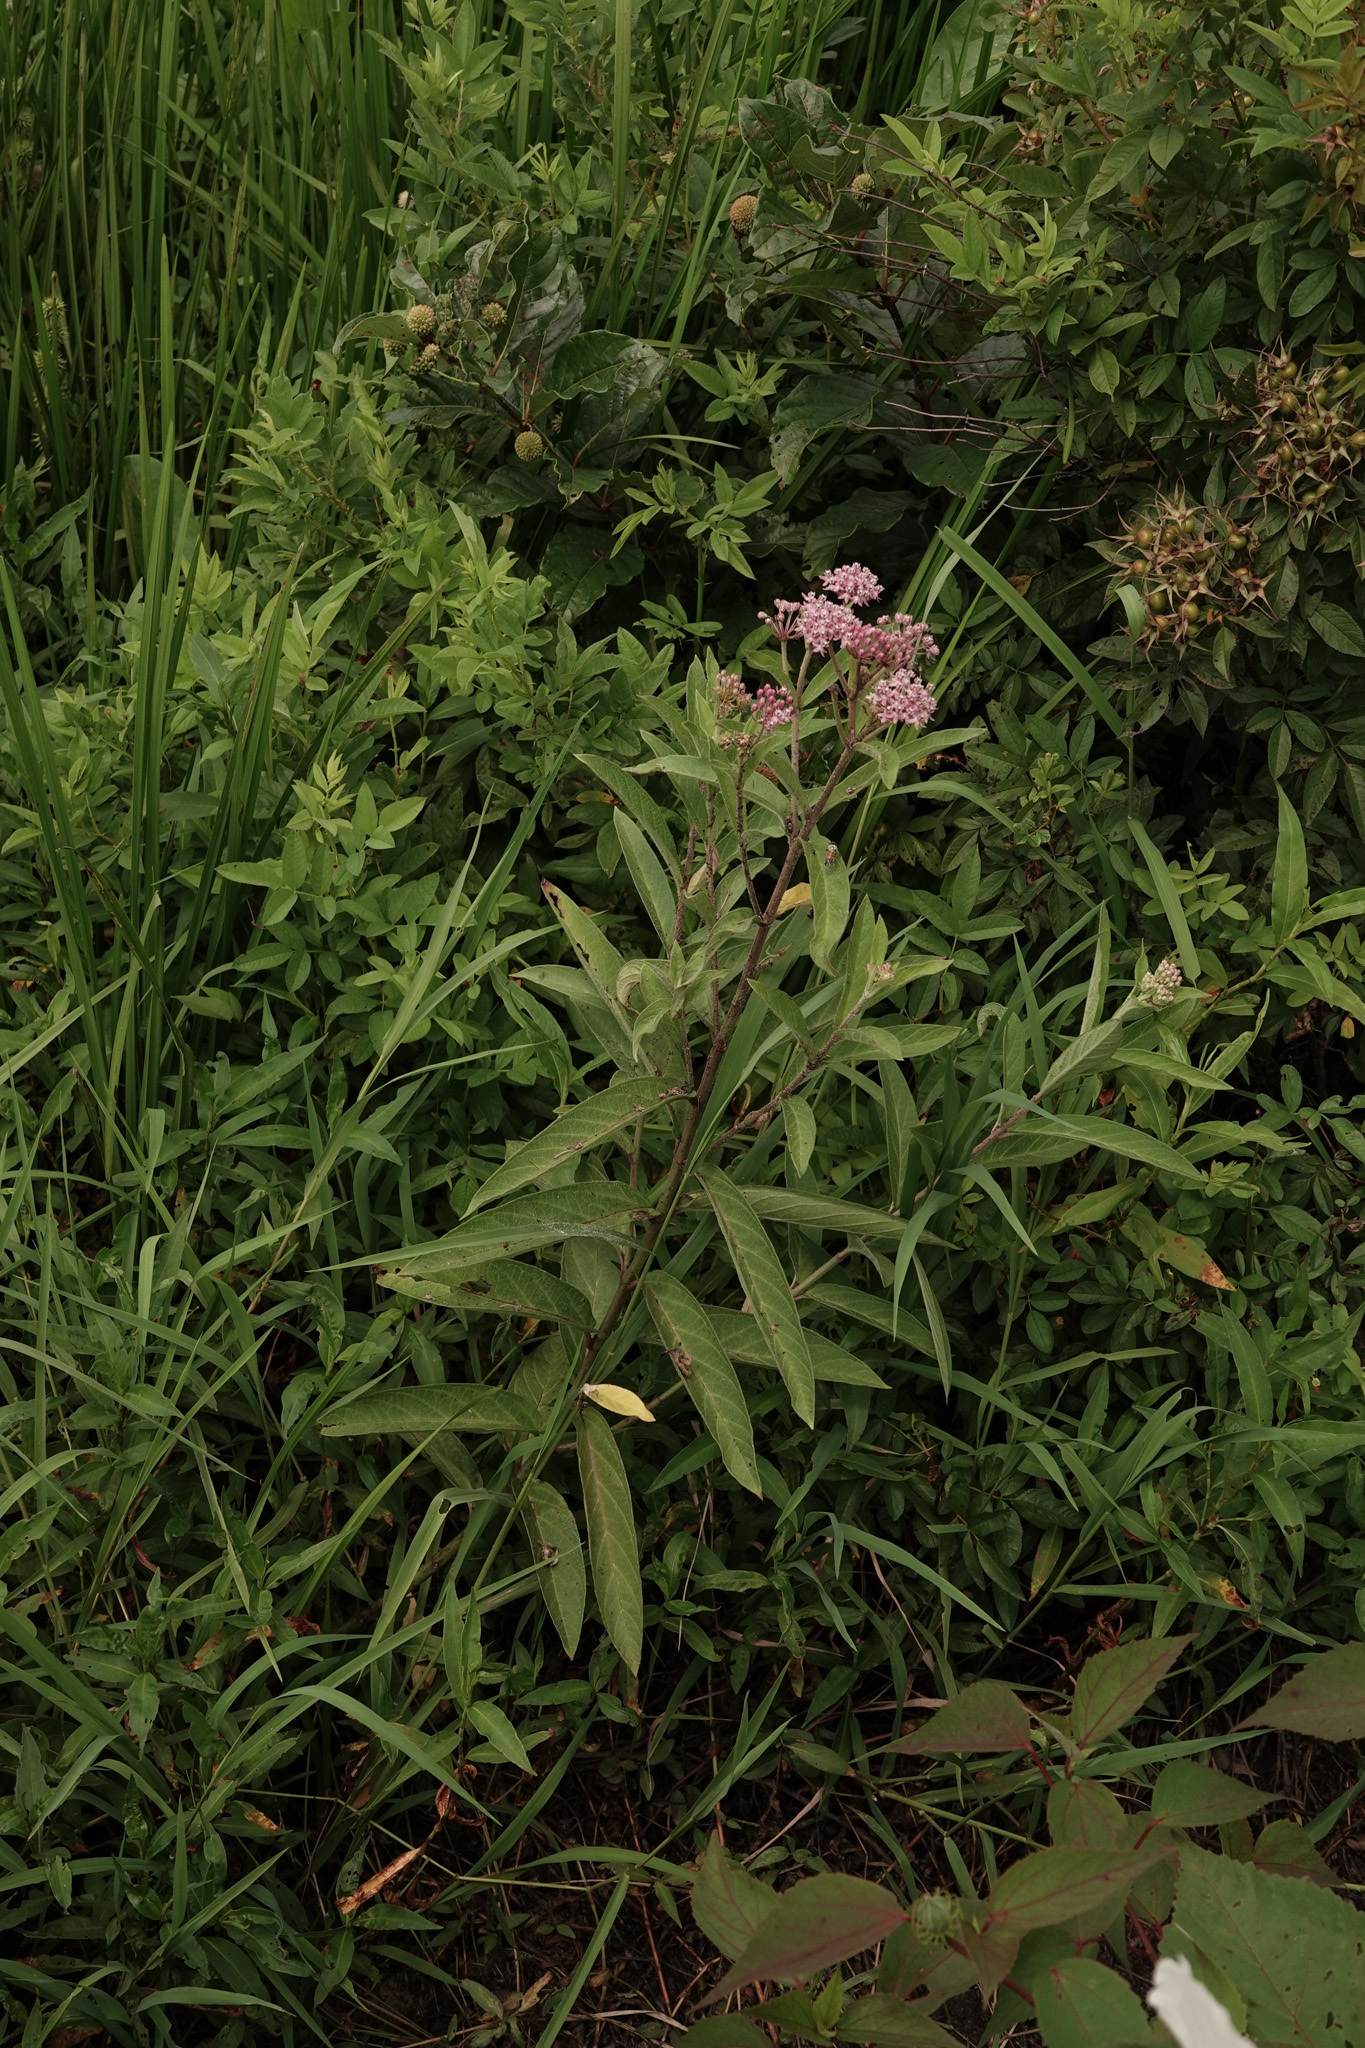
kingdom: Plantae
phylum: Tracheophyta
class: Magnoliopsida
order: Gentianales
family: Apocynaceae
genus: Asclepias
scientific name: Asclepias incarnata
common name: Swamp milkweed
